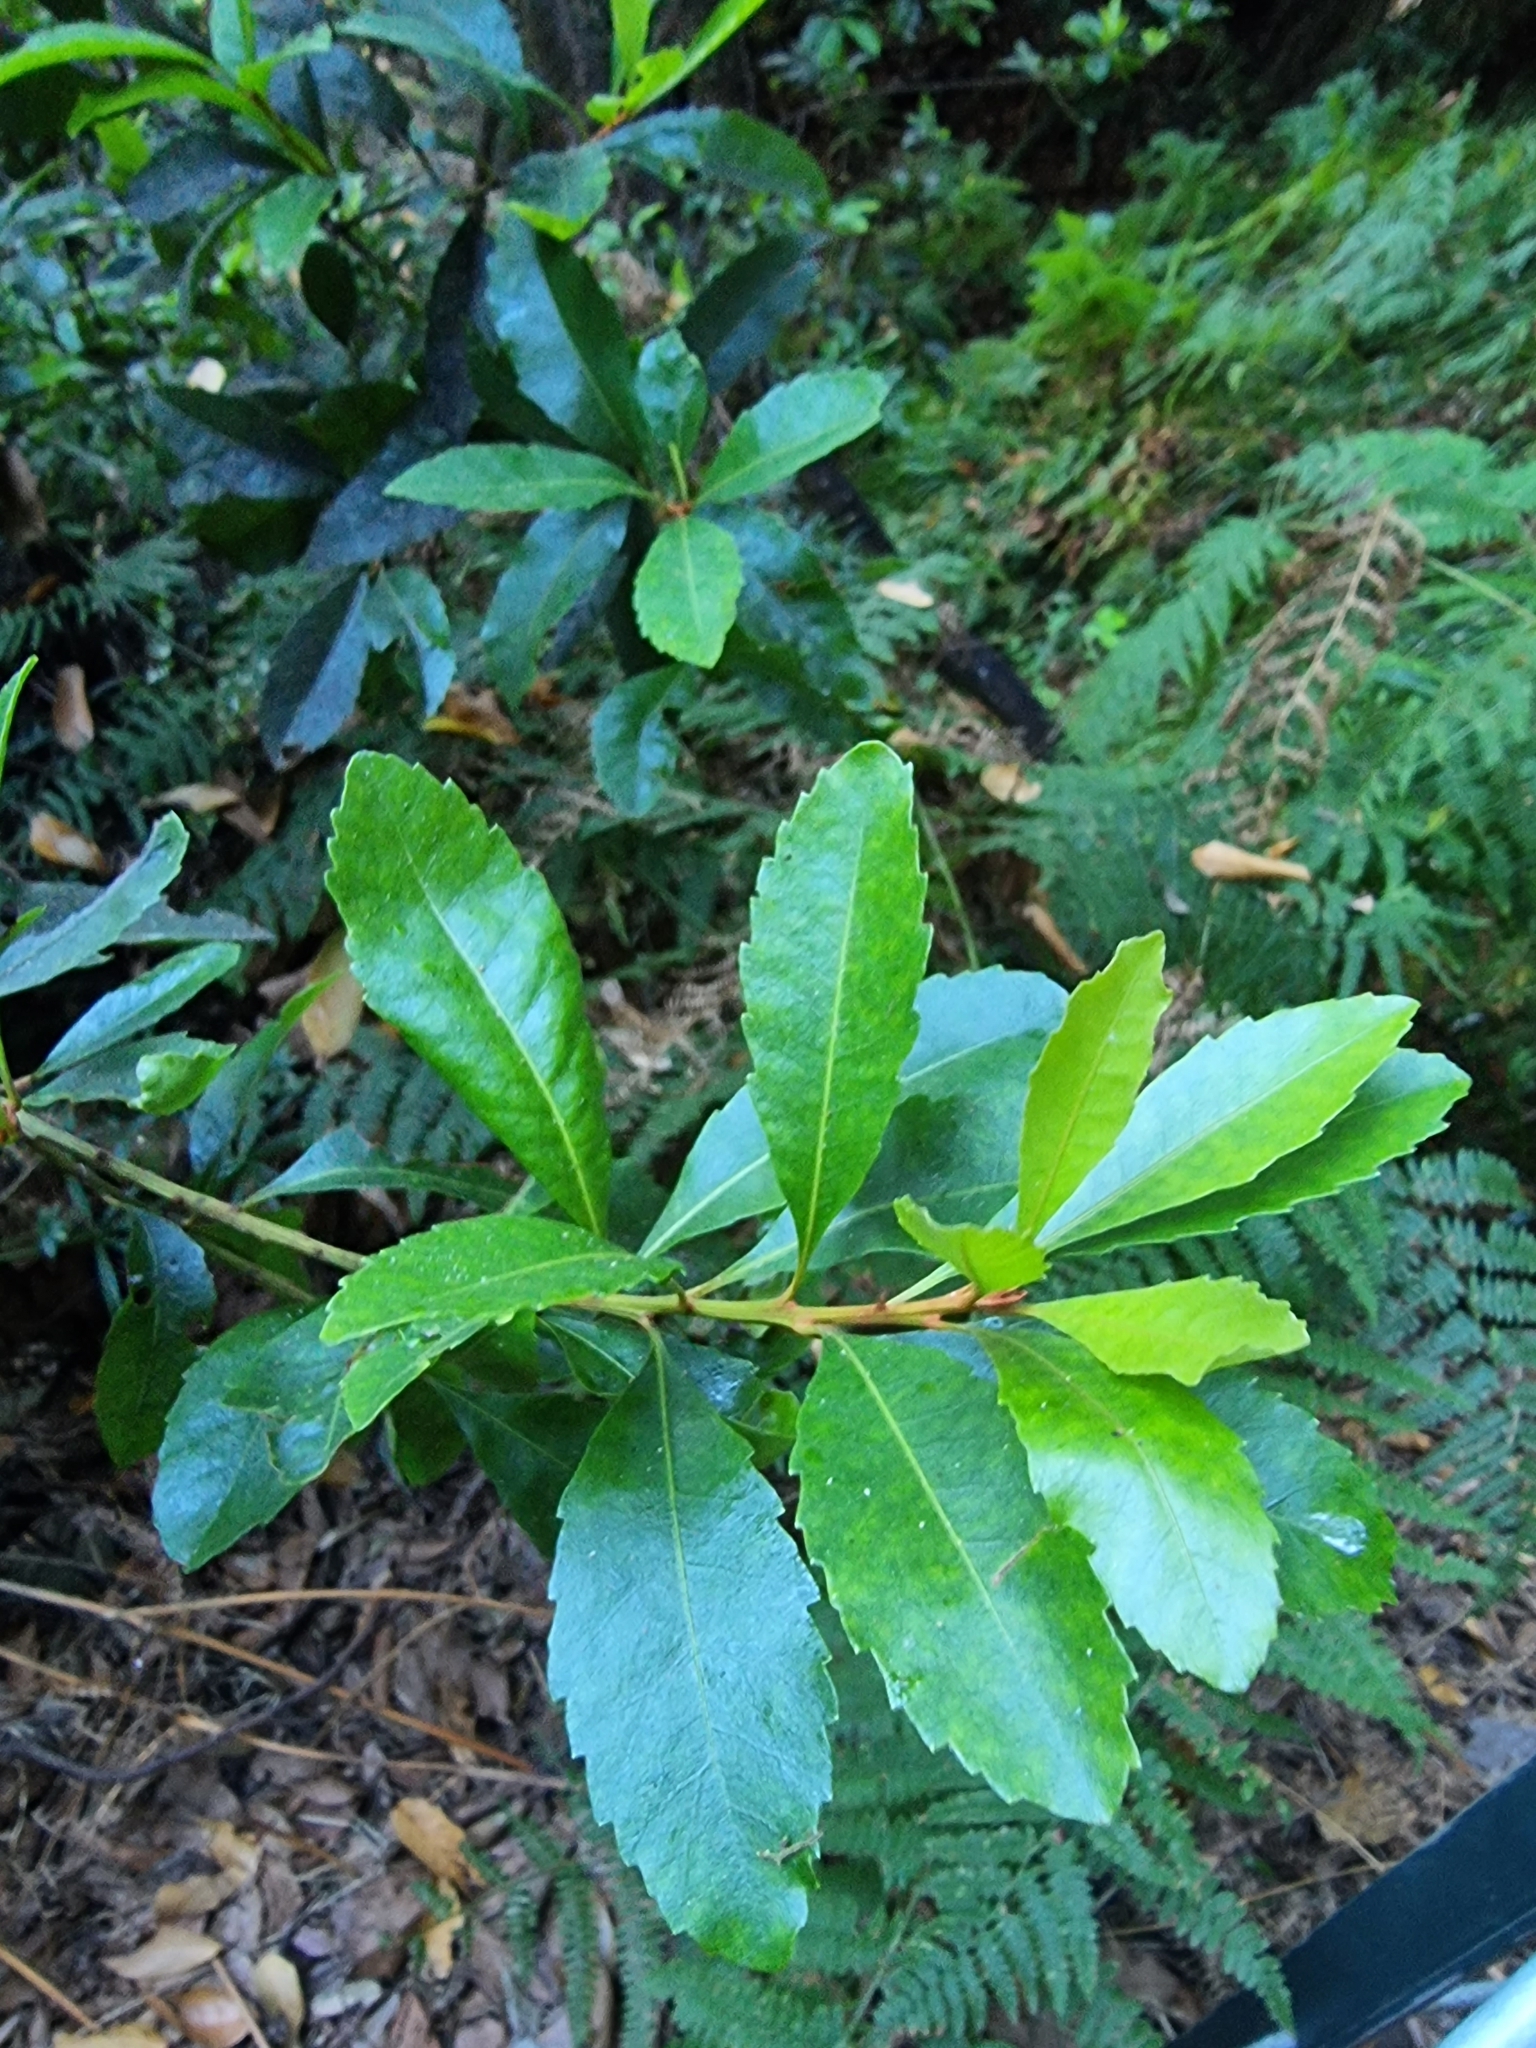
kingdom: Plantae
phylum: Tracheophyta
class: Magnoliopsida
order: Fagales
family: Myricaceae
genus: Morella
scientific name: Morella faya
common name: Firetree
